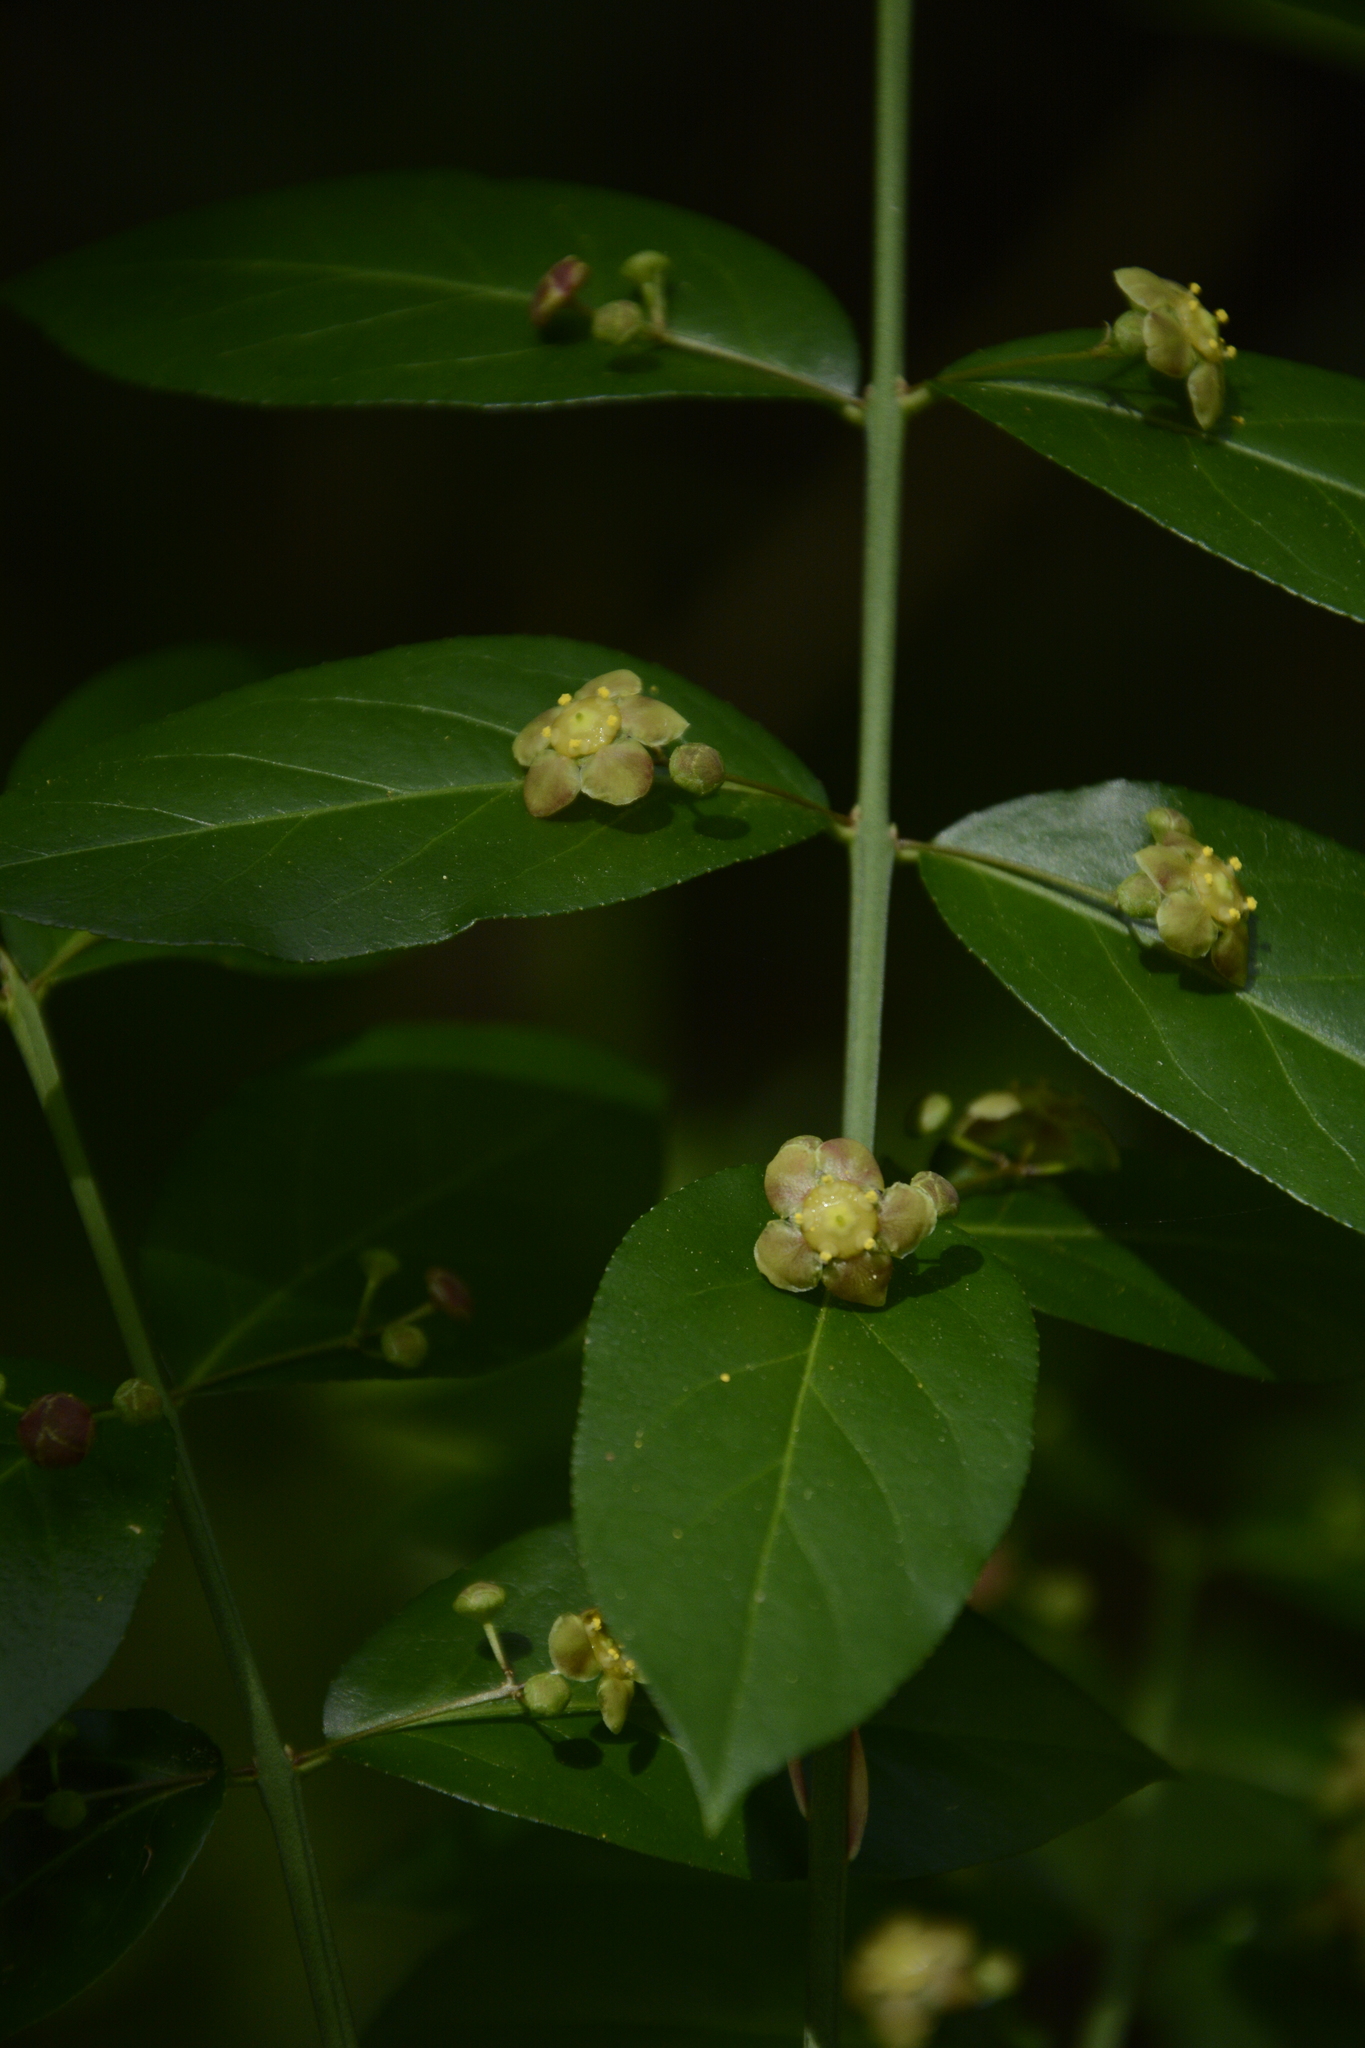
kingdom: Plantae
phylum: Tracheophyta
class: Magnoliopsida
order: Celastrales
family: Celastraceae
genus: Euonymus
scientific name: Euonymus americanus
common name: Bursting-heart
